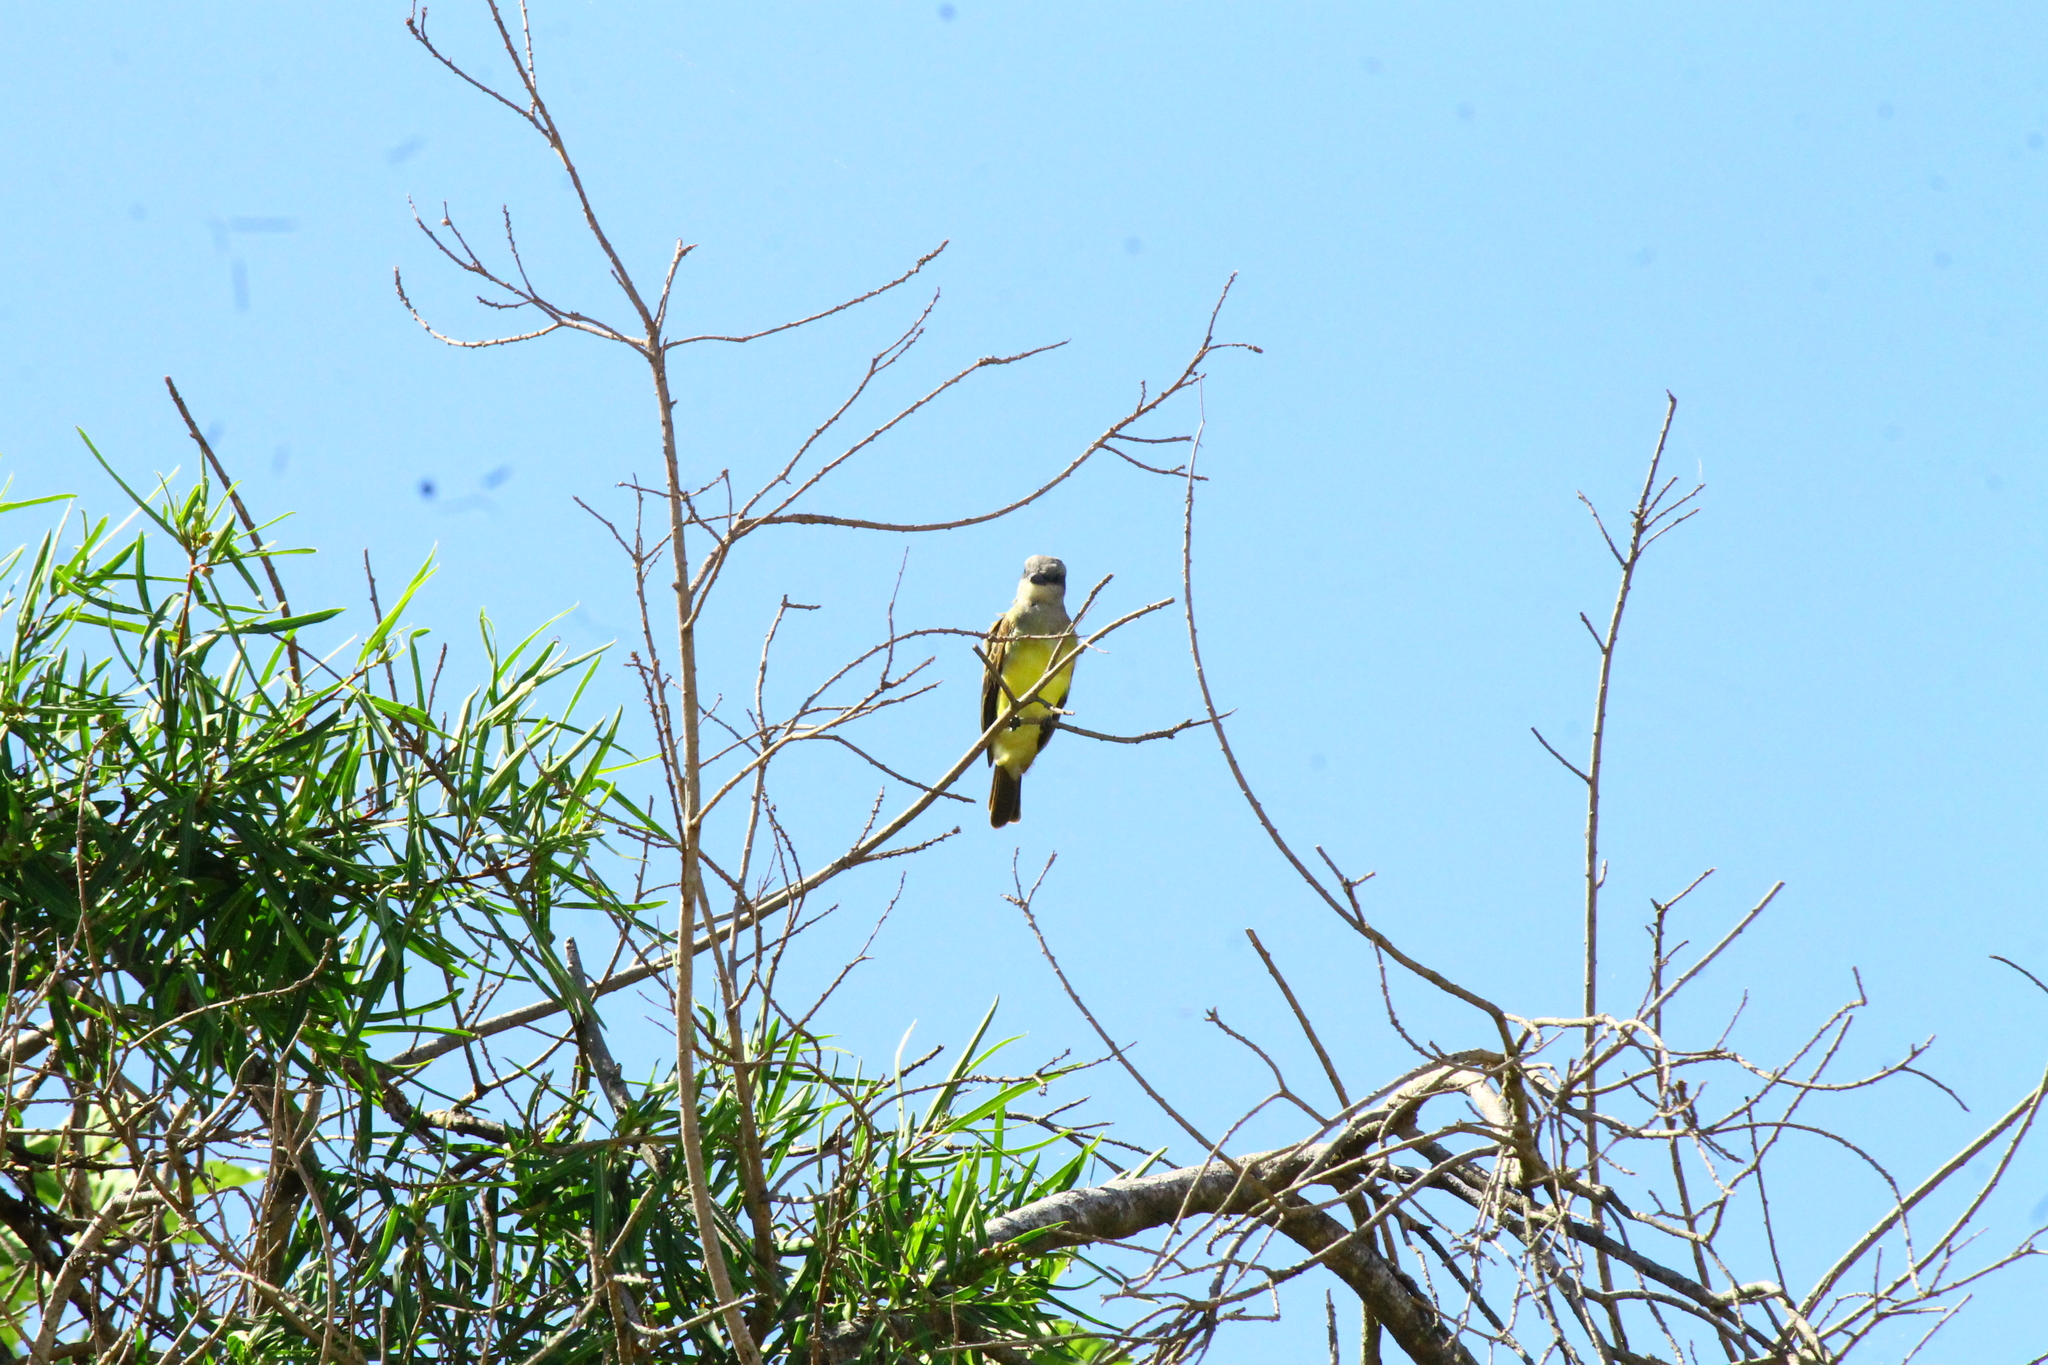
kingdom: Animalia
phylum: Chordata
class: Aves
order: Passeriformes
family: Tyrannidae
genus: Tyrannus
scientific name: Tyrannus melancholicus
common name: Tropical kingbird
